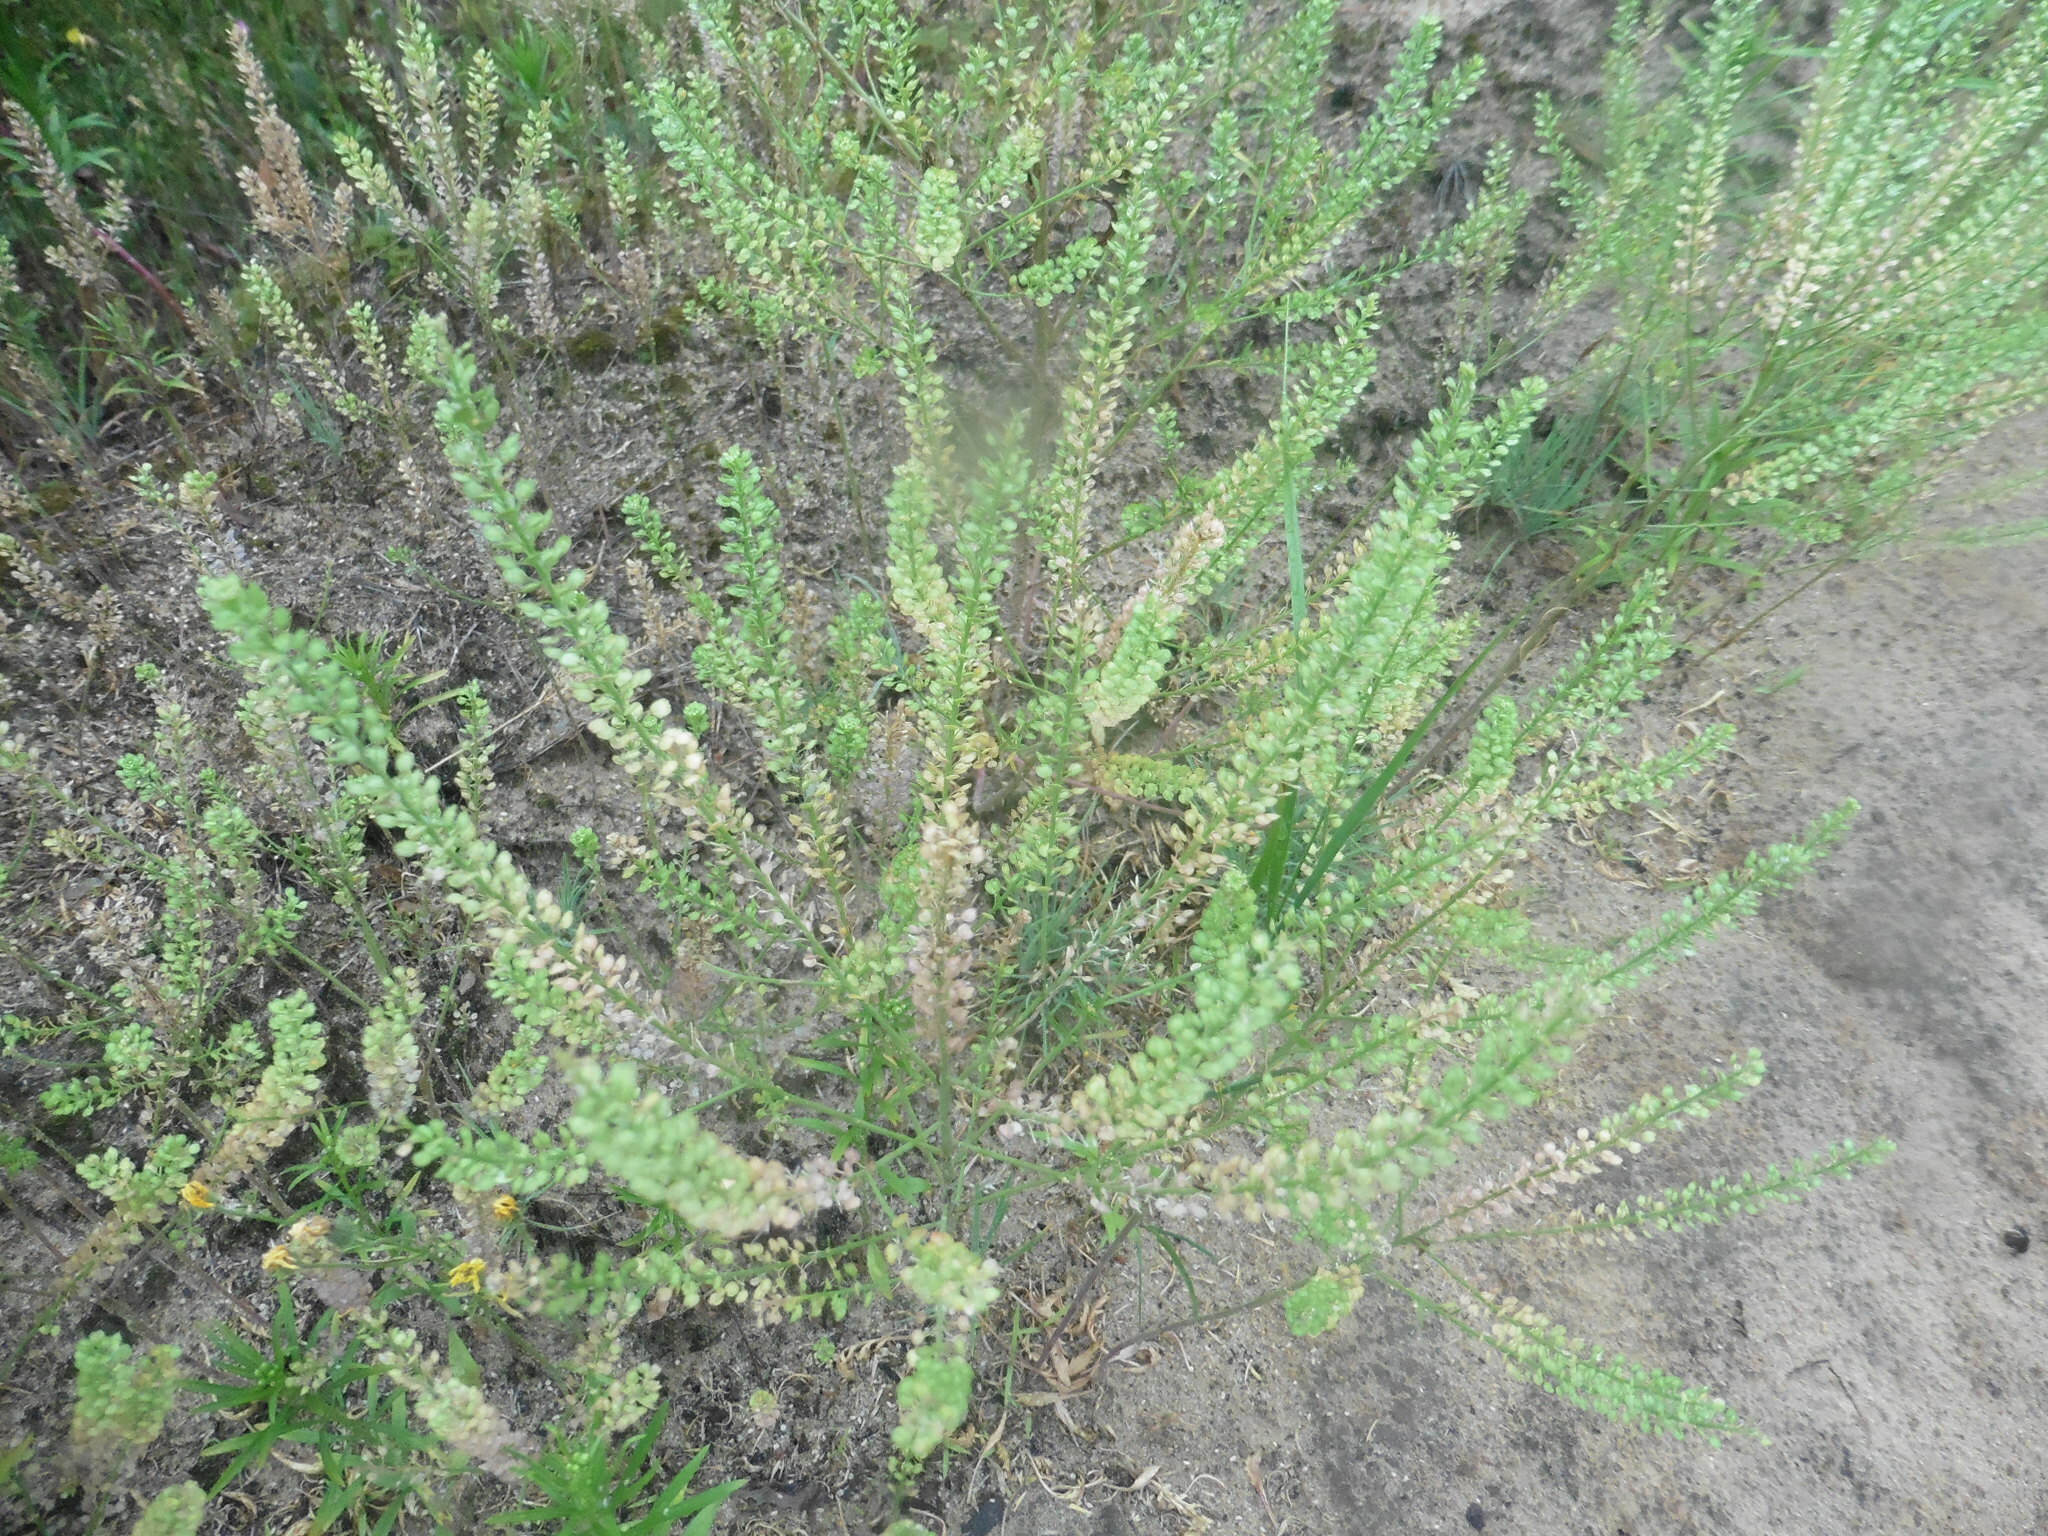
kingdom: Plantae
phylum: Tracheophyta
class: Magnoliopsida
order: Brassicales
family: Brassicaceae
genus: Lepidium
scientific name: Lepidium densiflorum
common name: Miner's pepperwort
